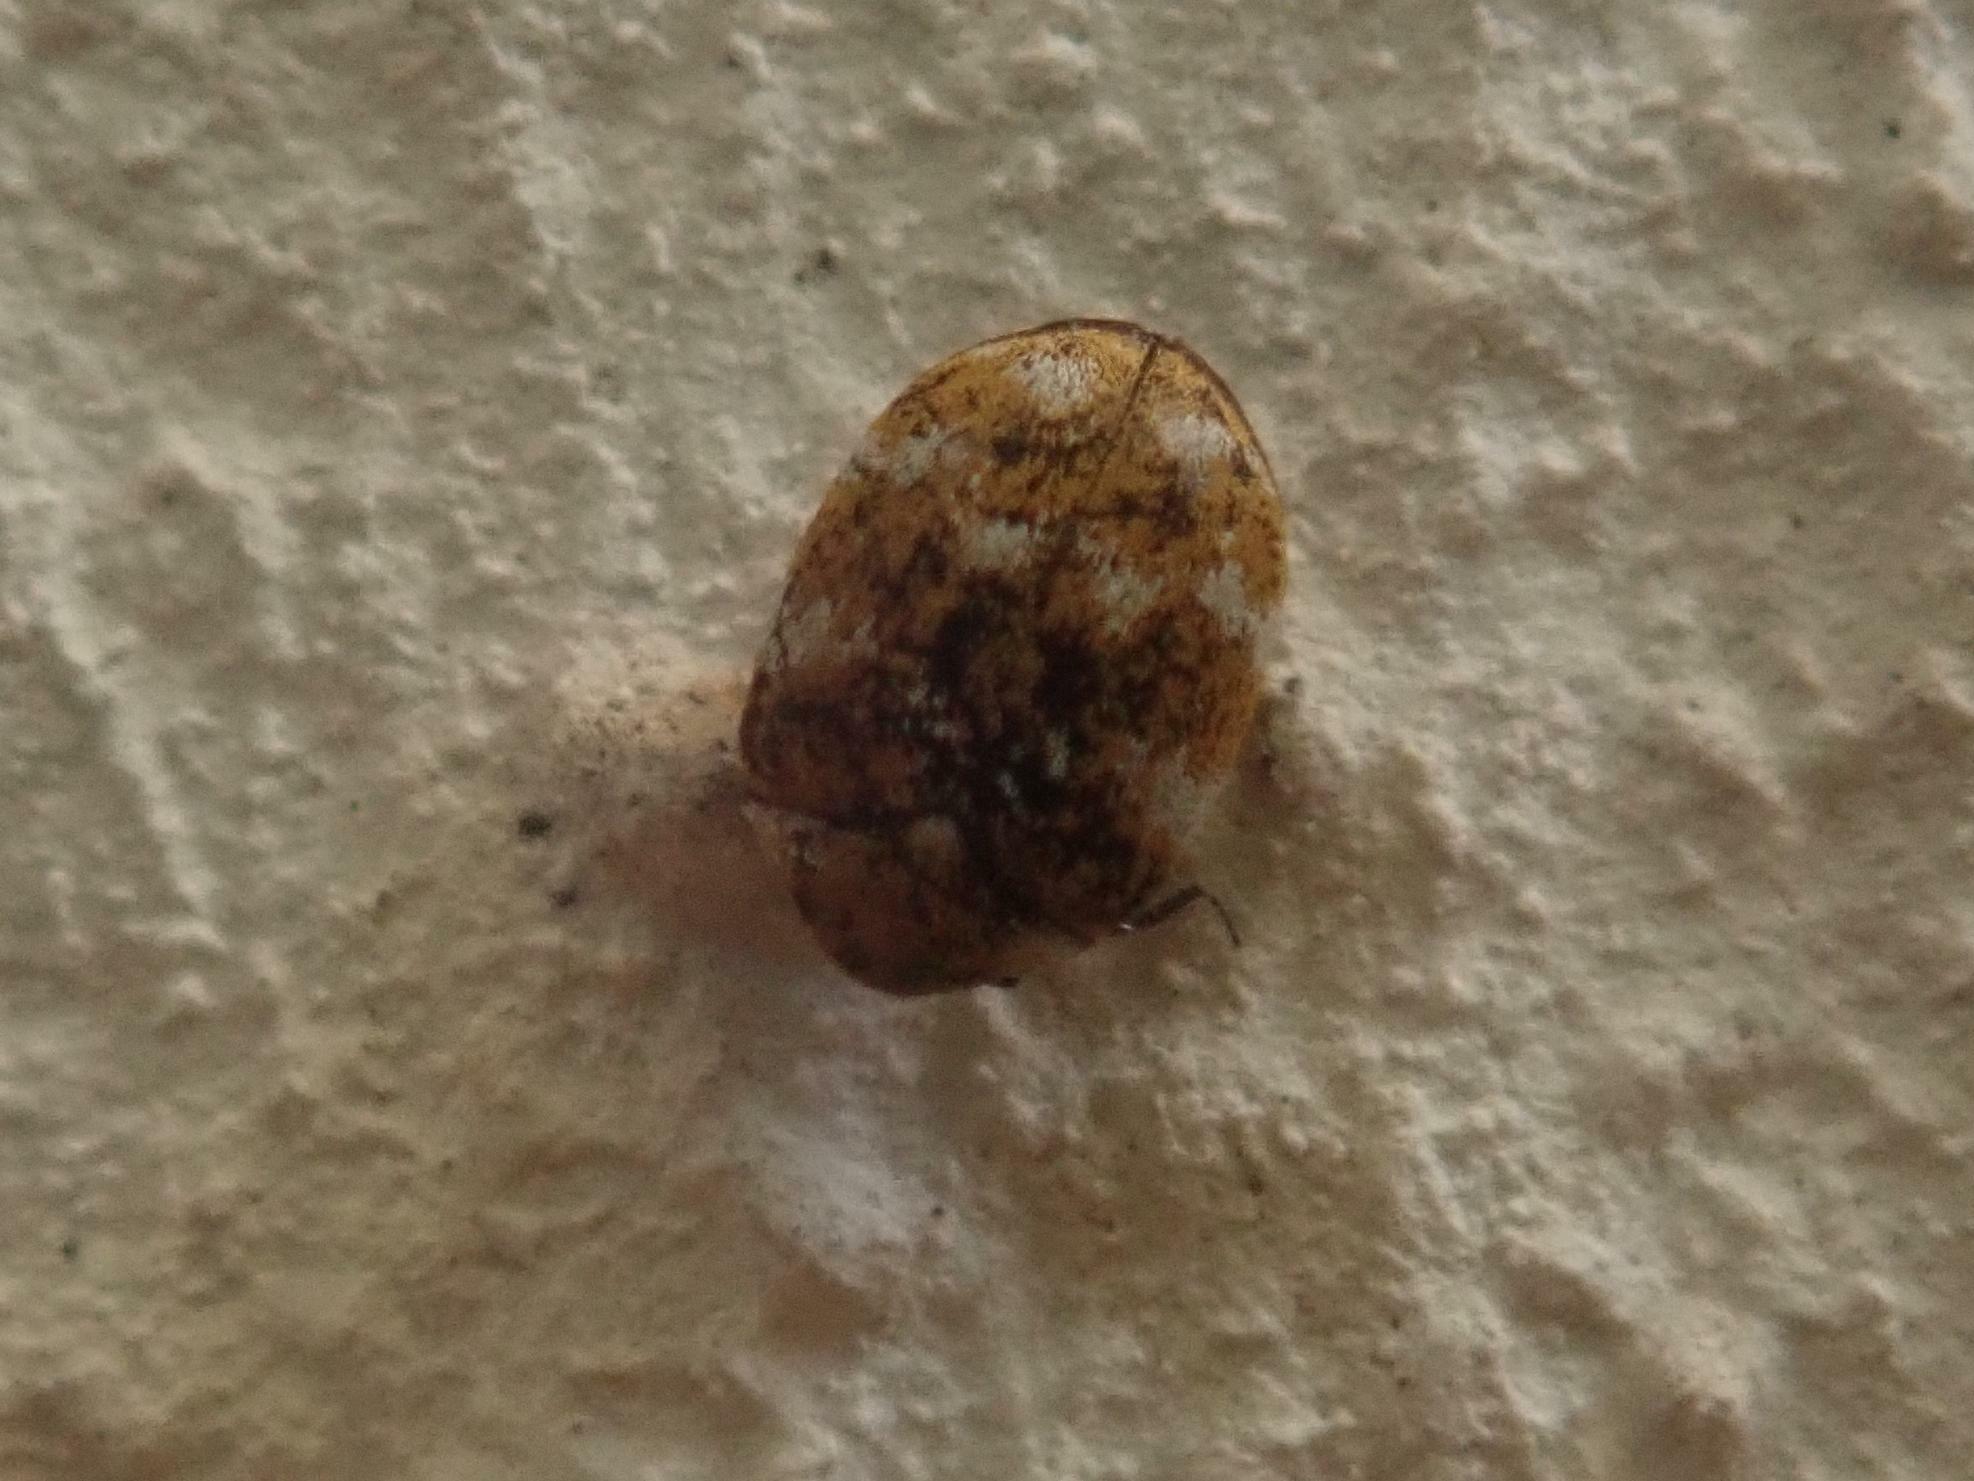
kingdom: Animalia
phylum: Arthropoda
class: Insecta
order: Coleoptera
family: Dermestidae
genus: Anthrenus
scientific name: Anthrenus verbasci
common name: Varied carpet beetle
